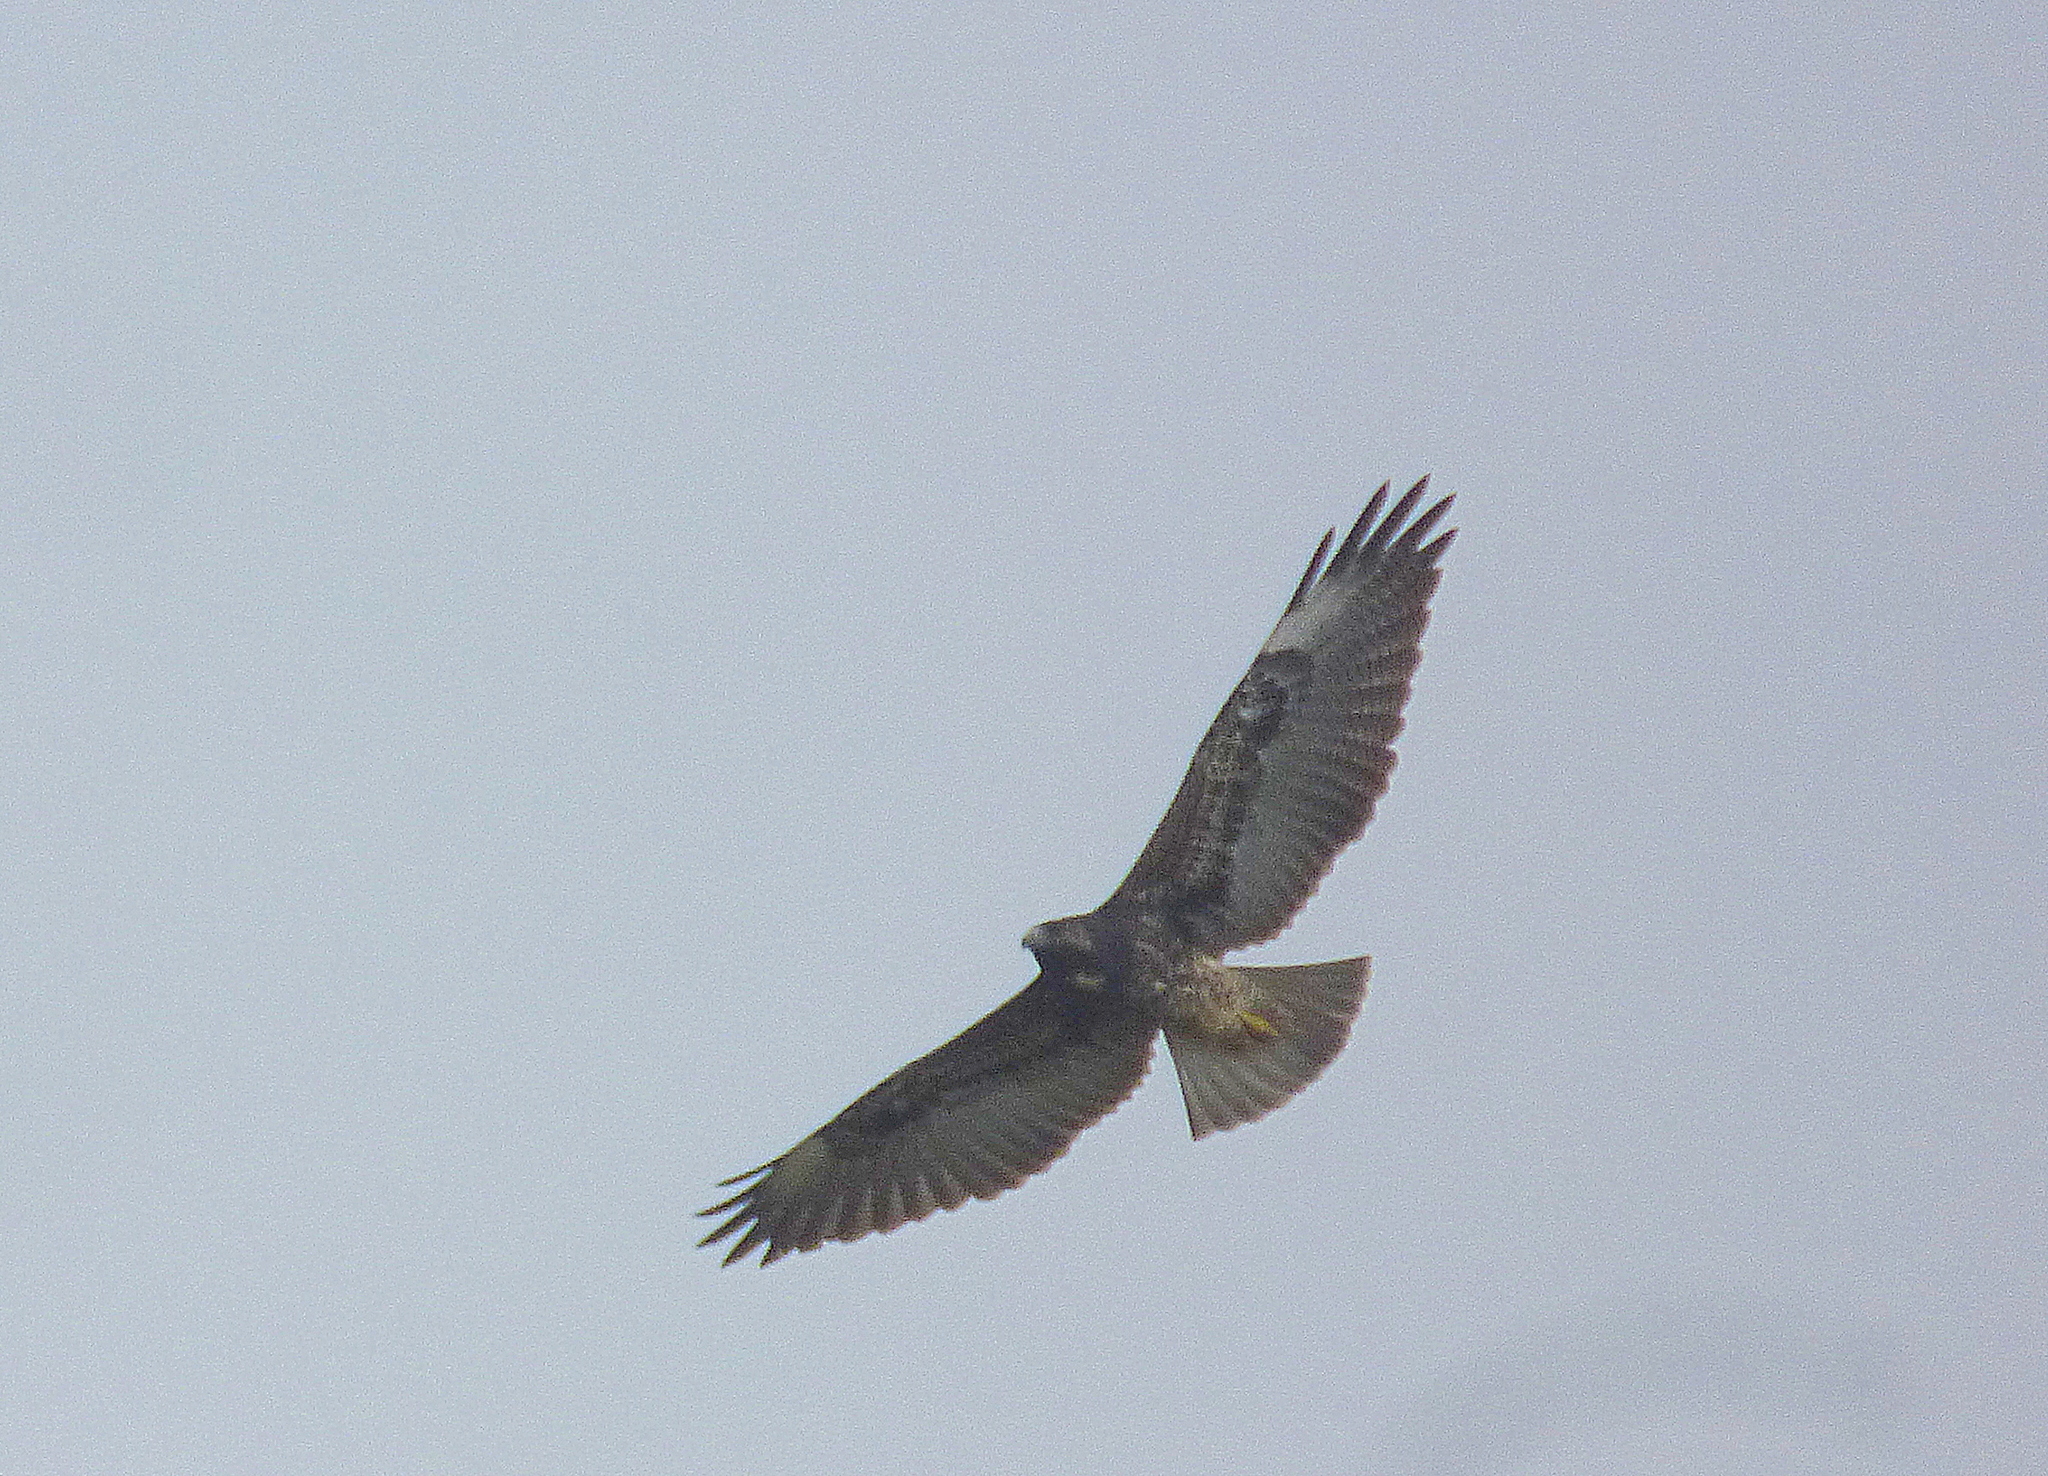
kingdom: Animalia
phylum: Chordata
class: Aves
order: Accipitriformes
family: Accipitridae
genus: Buteo
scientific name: Buteo albicaudatus
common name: White-tailed hawk
